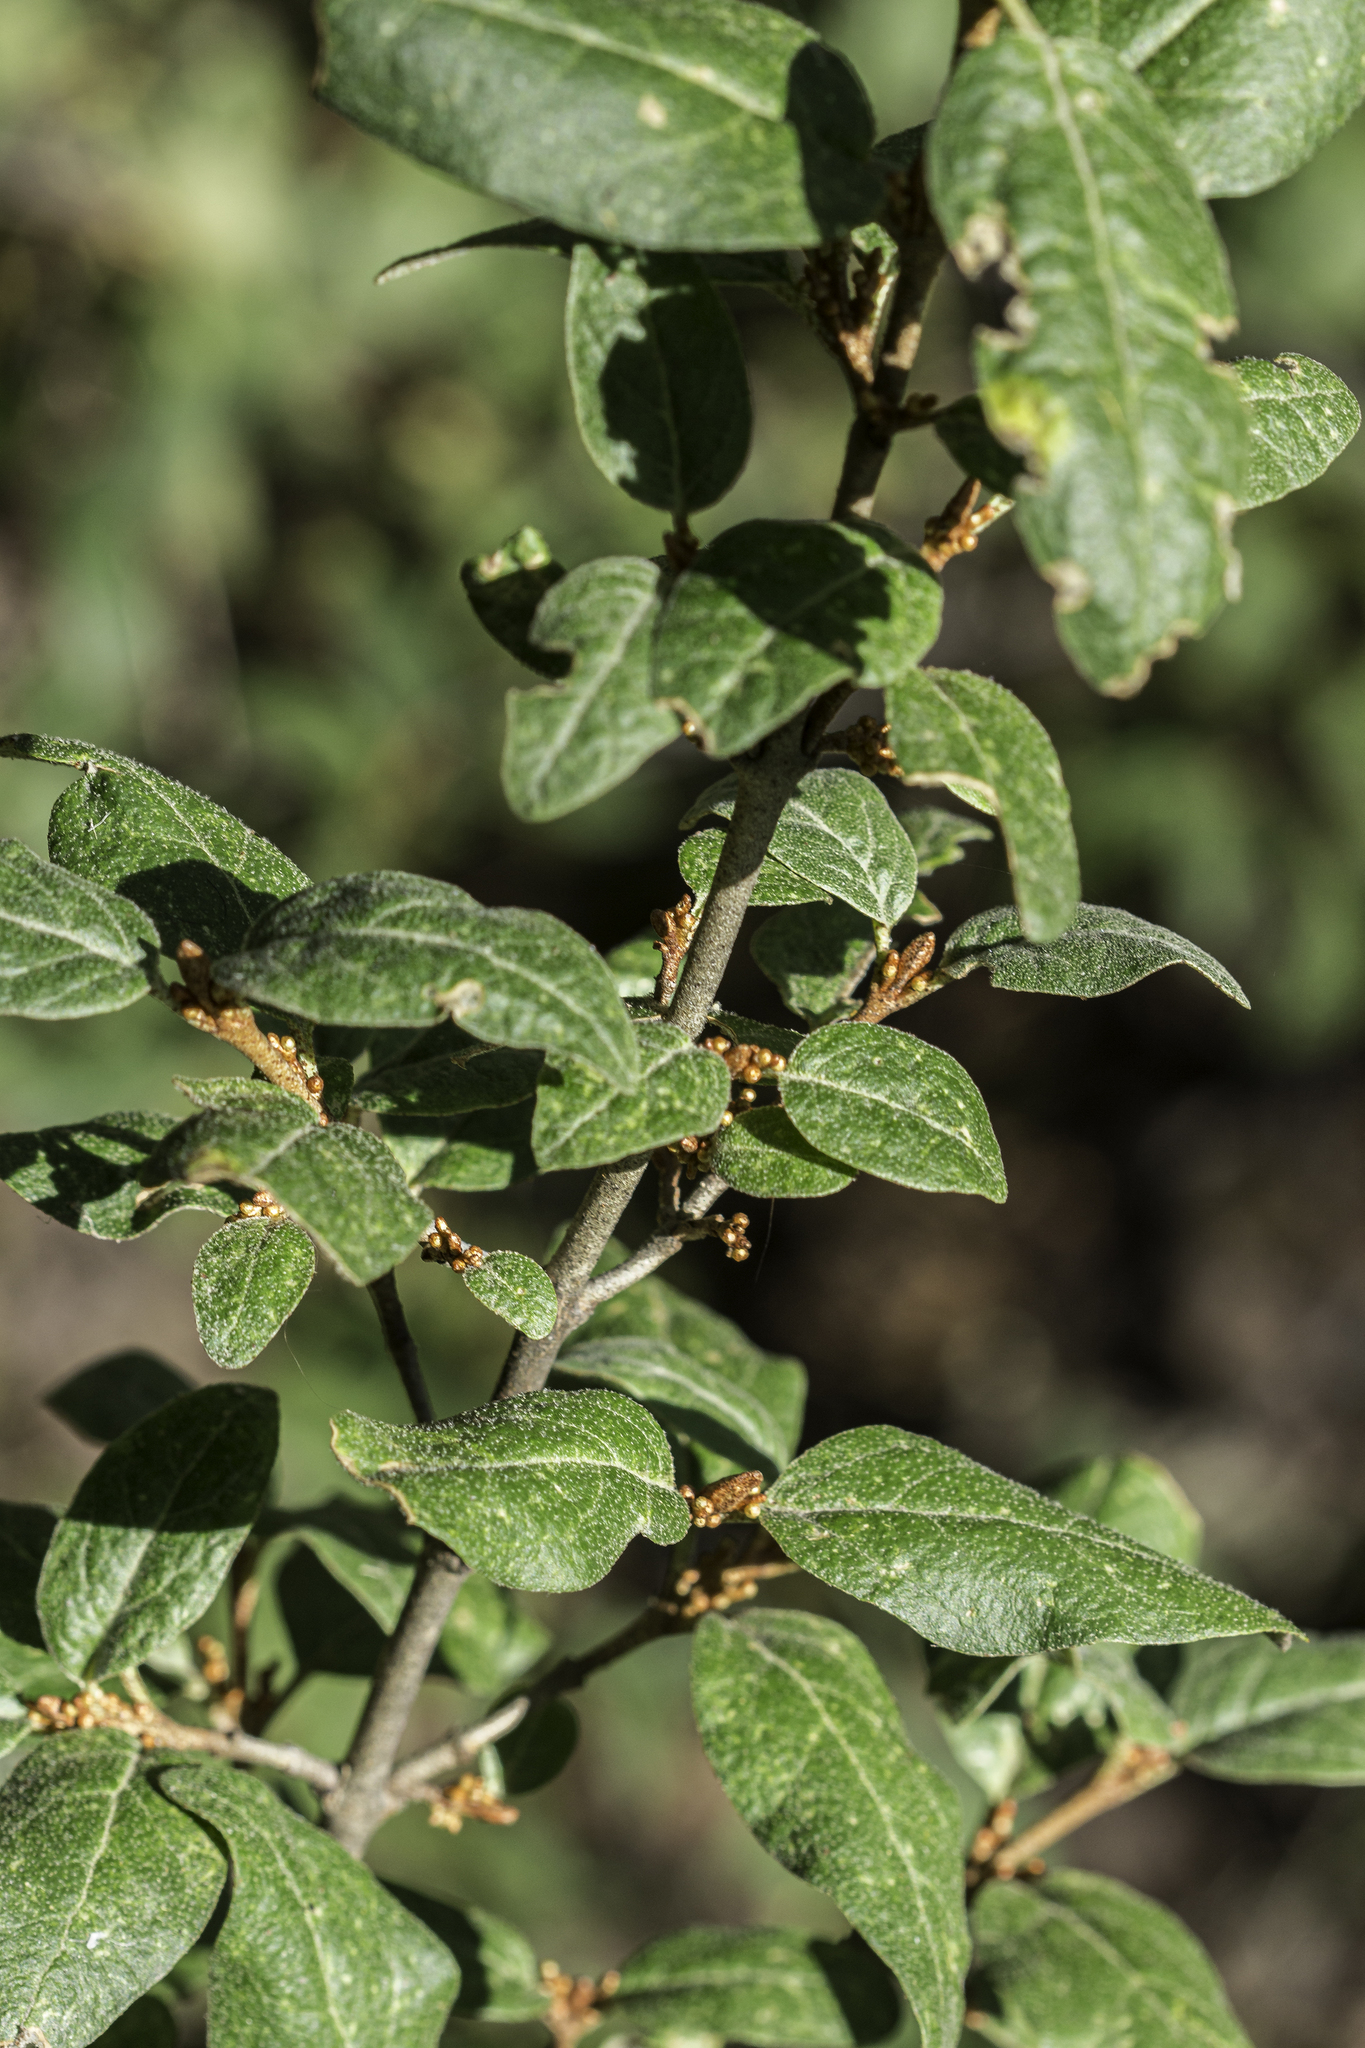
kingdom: Plantae
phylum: Tracheophyta
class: Magnoliopsida
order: Rosales
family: Elaeagnaceae
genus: Shepherdia
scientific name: Shepherdia canadensis
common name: Soapberry
